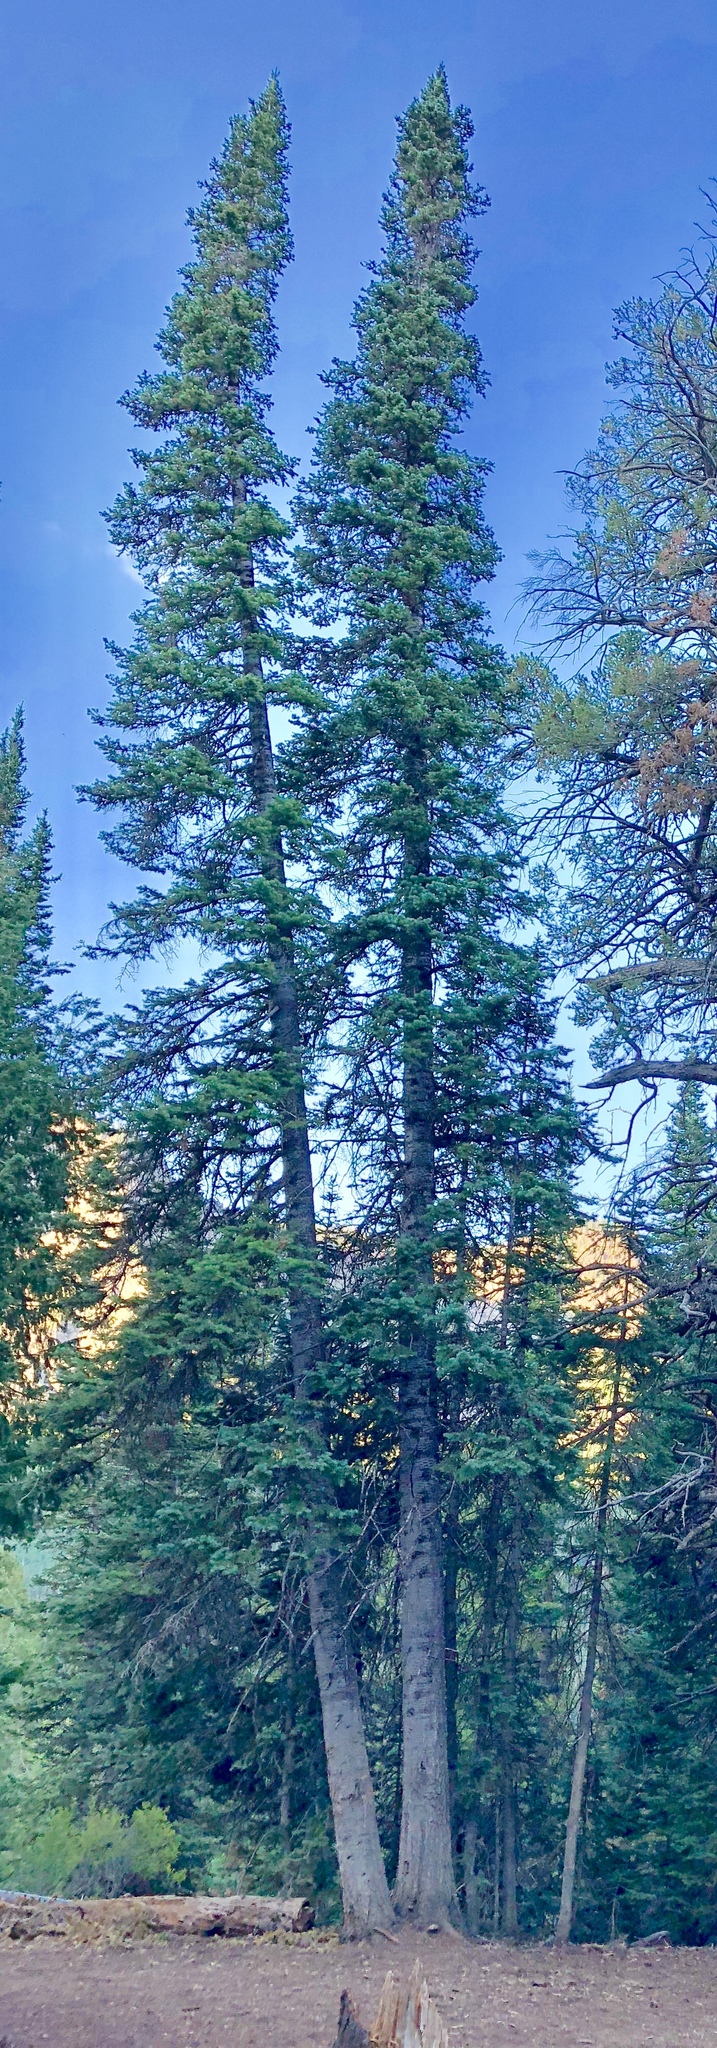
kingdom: Plantae
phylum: Tracheophyta
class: Pinopsida
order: Pinales
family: Pinaceae
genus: Abies
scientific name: Abies lasiocarpa
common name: Subalpine fir
